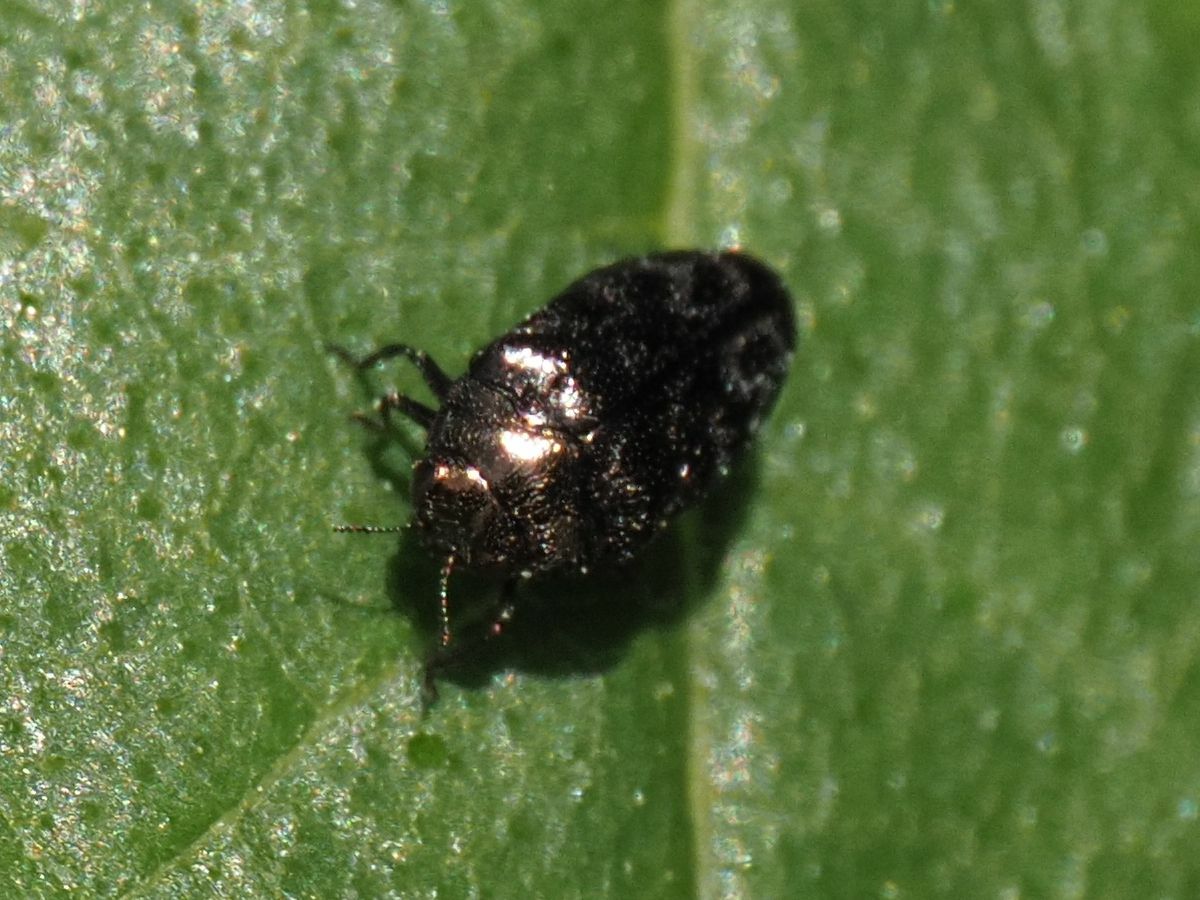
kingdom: Animalia
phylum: Arthropoda
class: Insecta
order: Coleoptera
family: Buprestidae
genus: Trachys
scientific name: Trachys minutus
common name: Metallic wood-boring beetle
